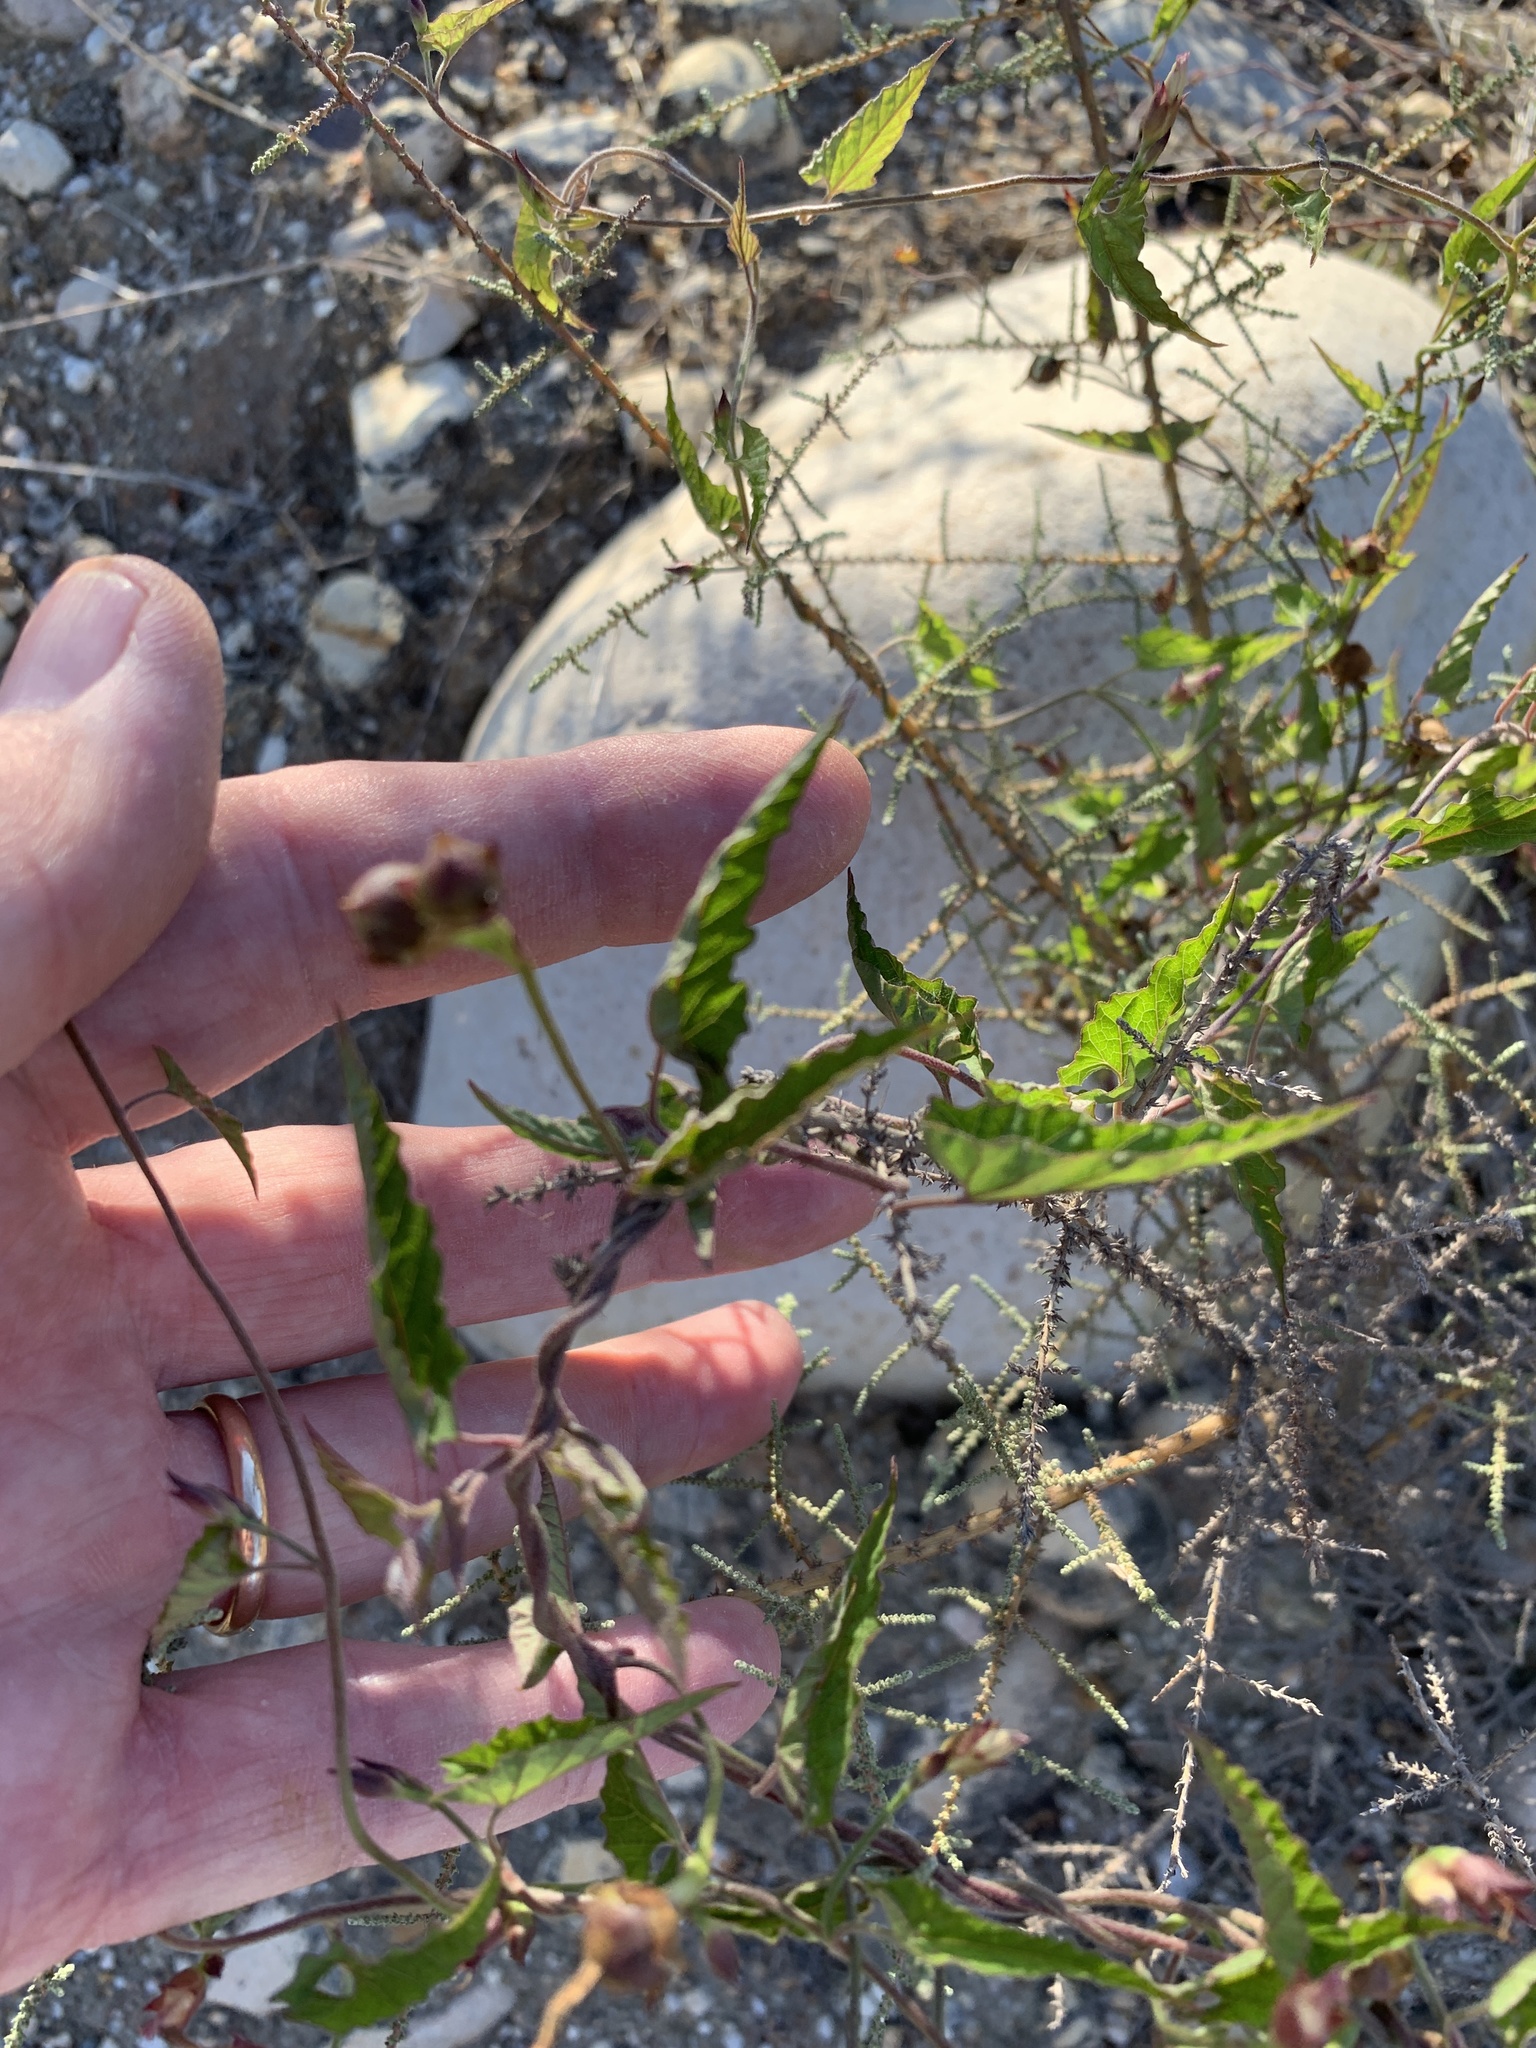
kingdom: Plantae
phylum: Tracheophyta
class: Magnoliopsida
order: Solanales
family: Convolvulaceae
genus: Convolvulus
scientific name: Convolvulus farinosus
